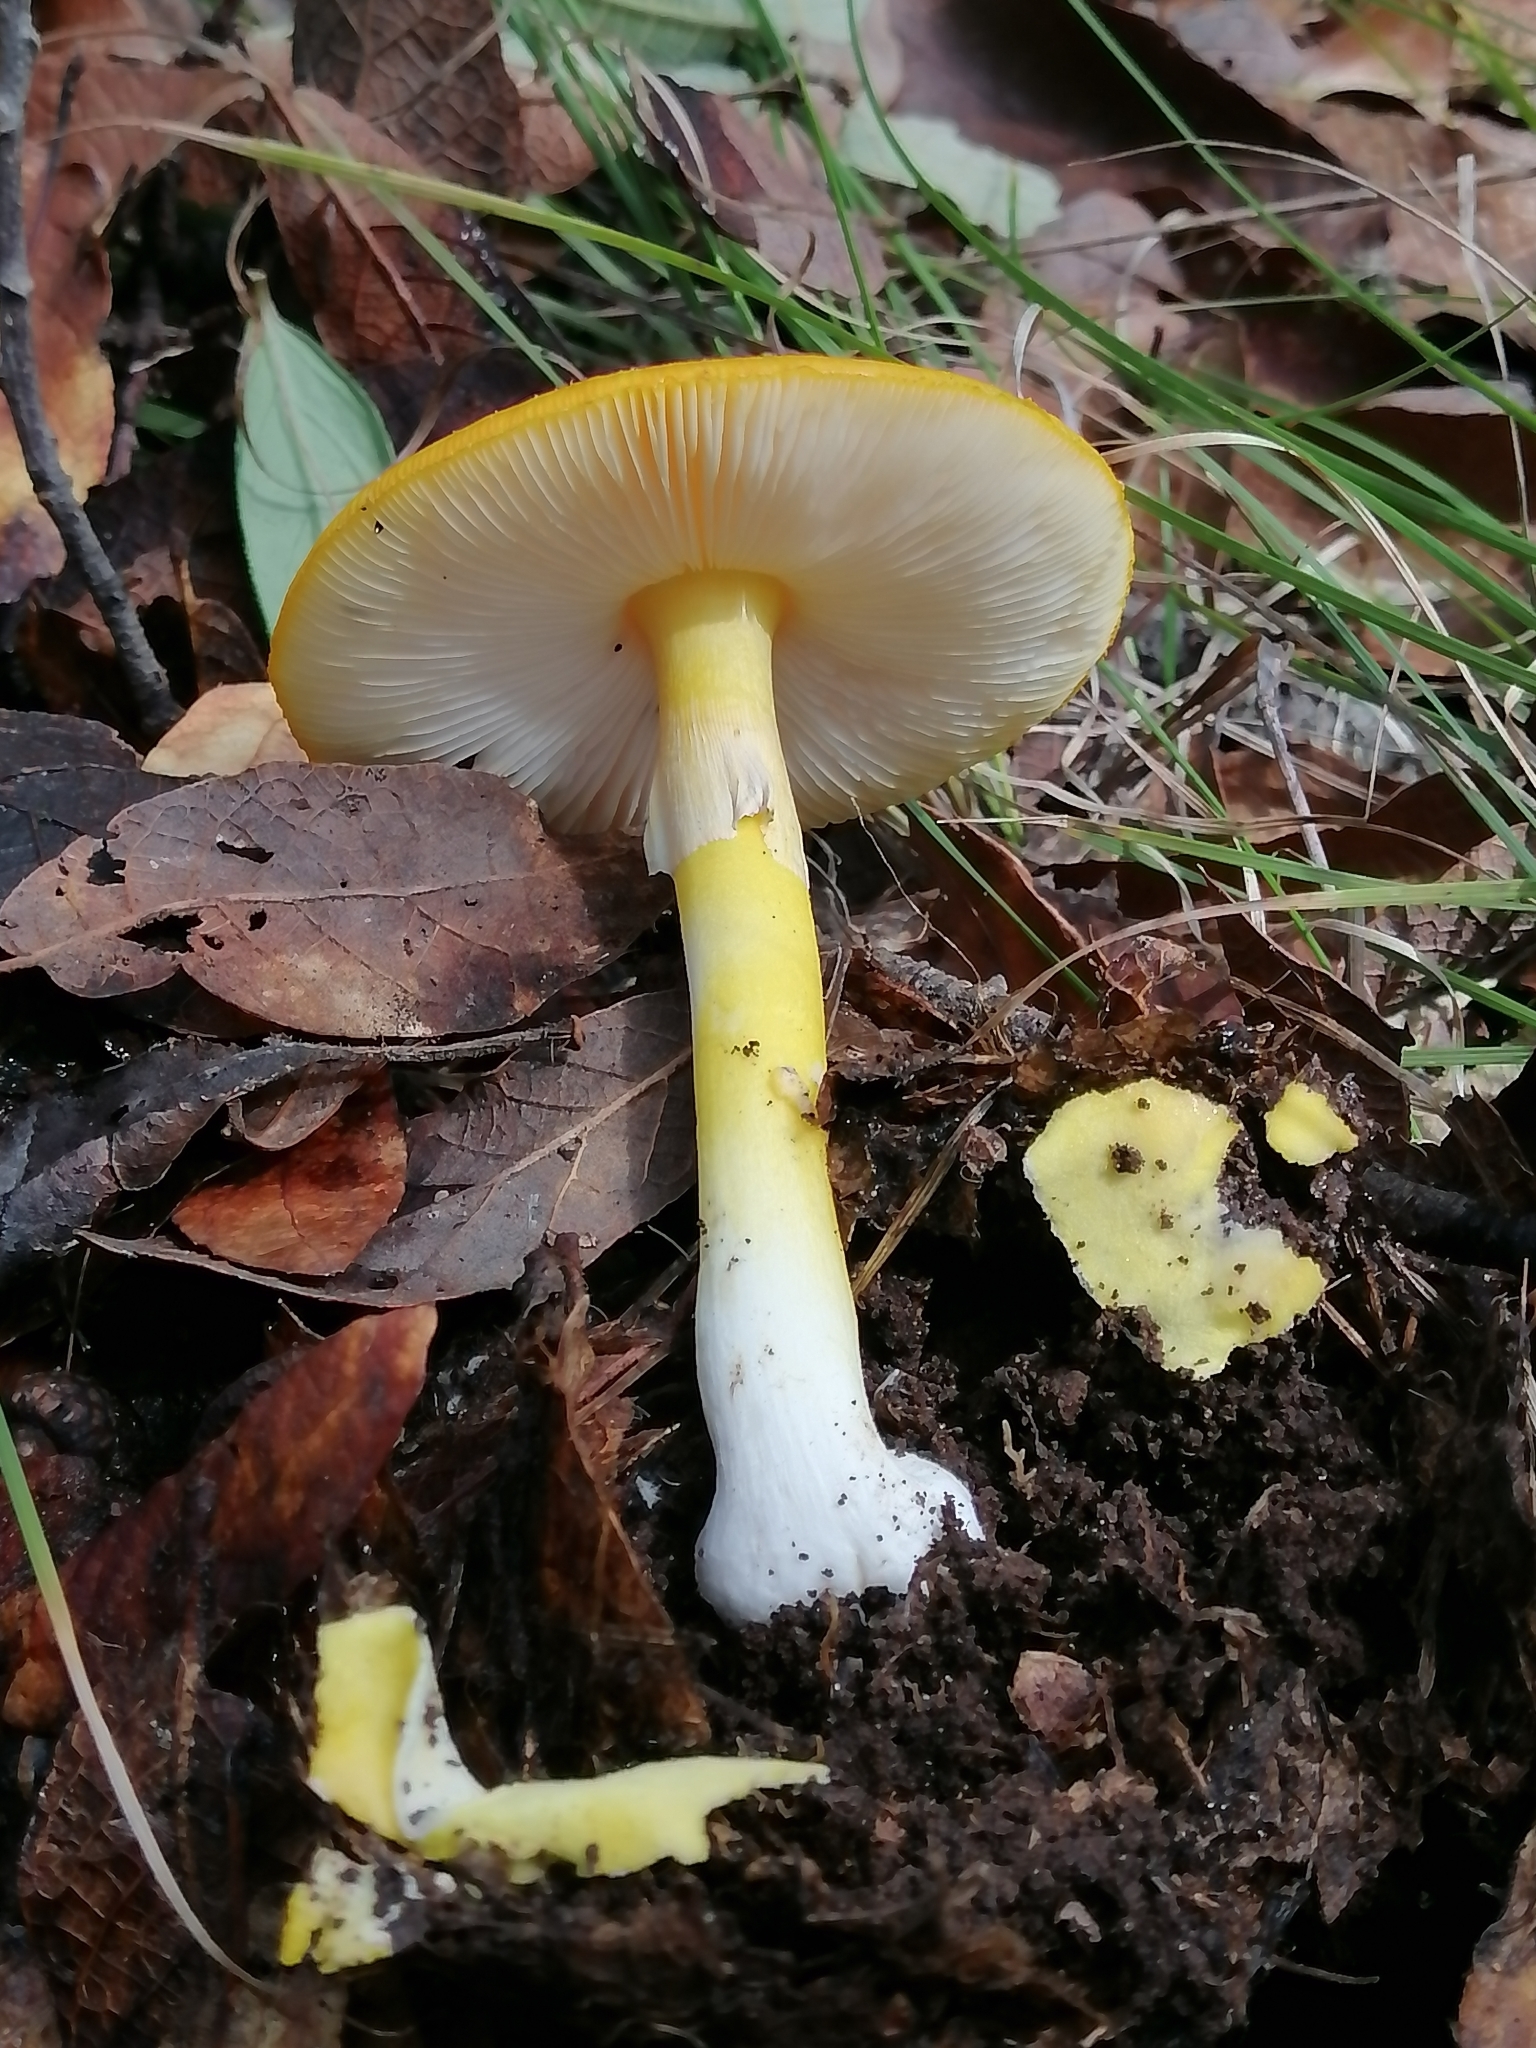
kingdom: Fungi
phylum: Basidiomycota
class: Agaricomycetes
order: Agaricales
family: Amanitaceae
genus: Amanita
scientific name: Amanita flavoconia
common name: Yellow patches
